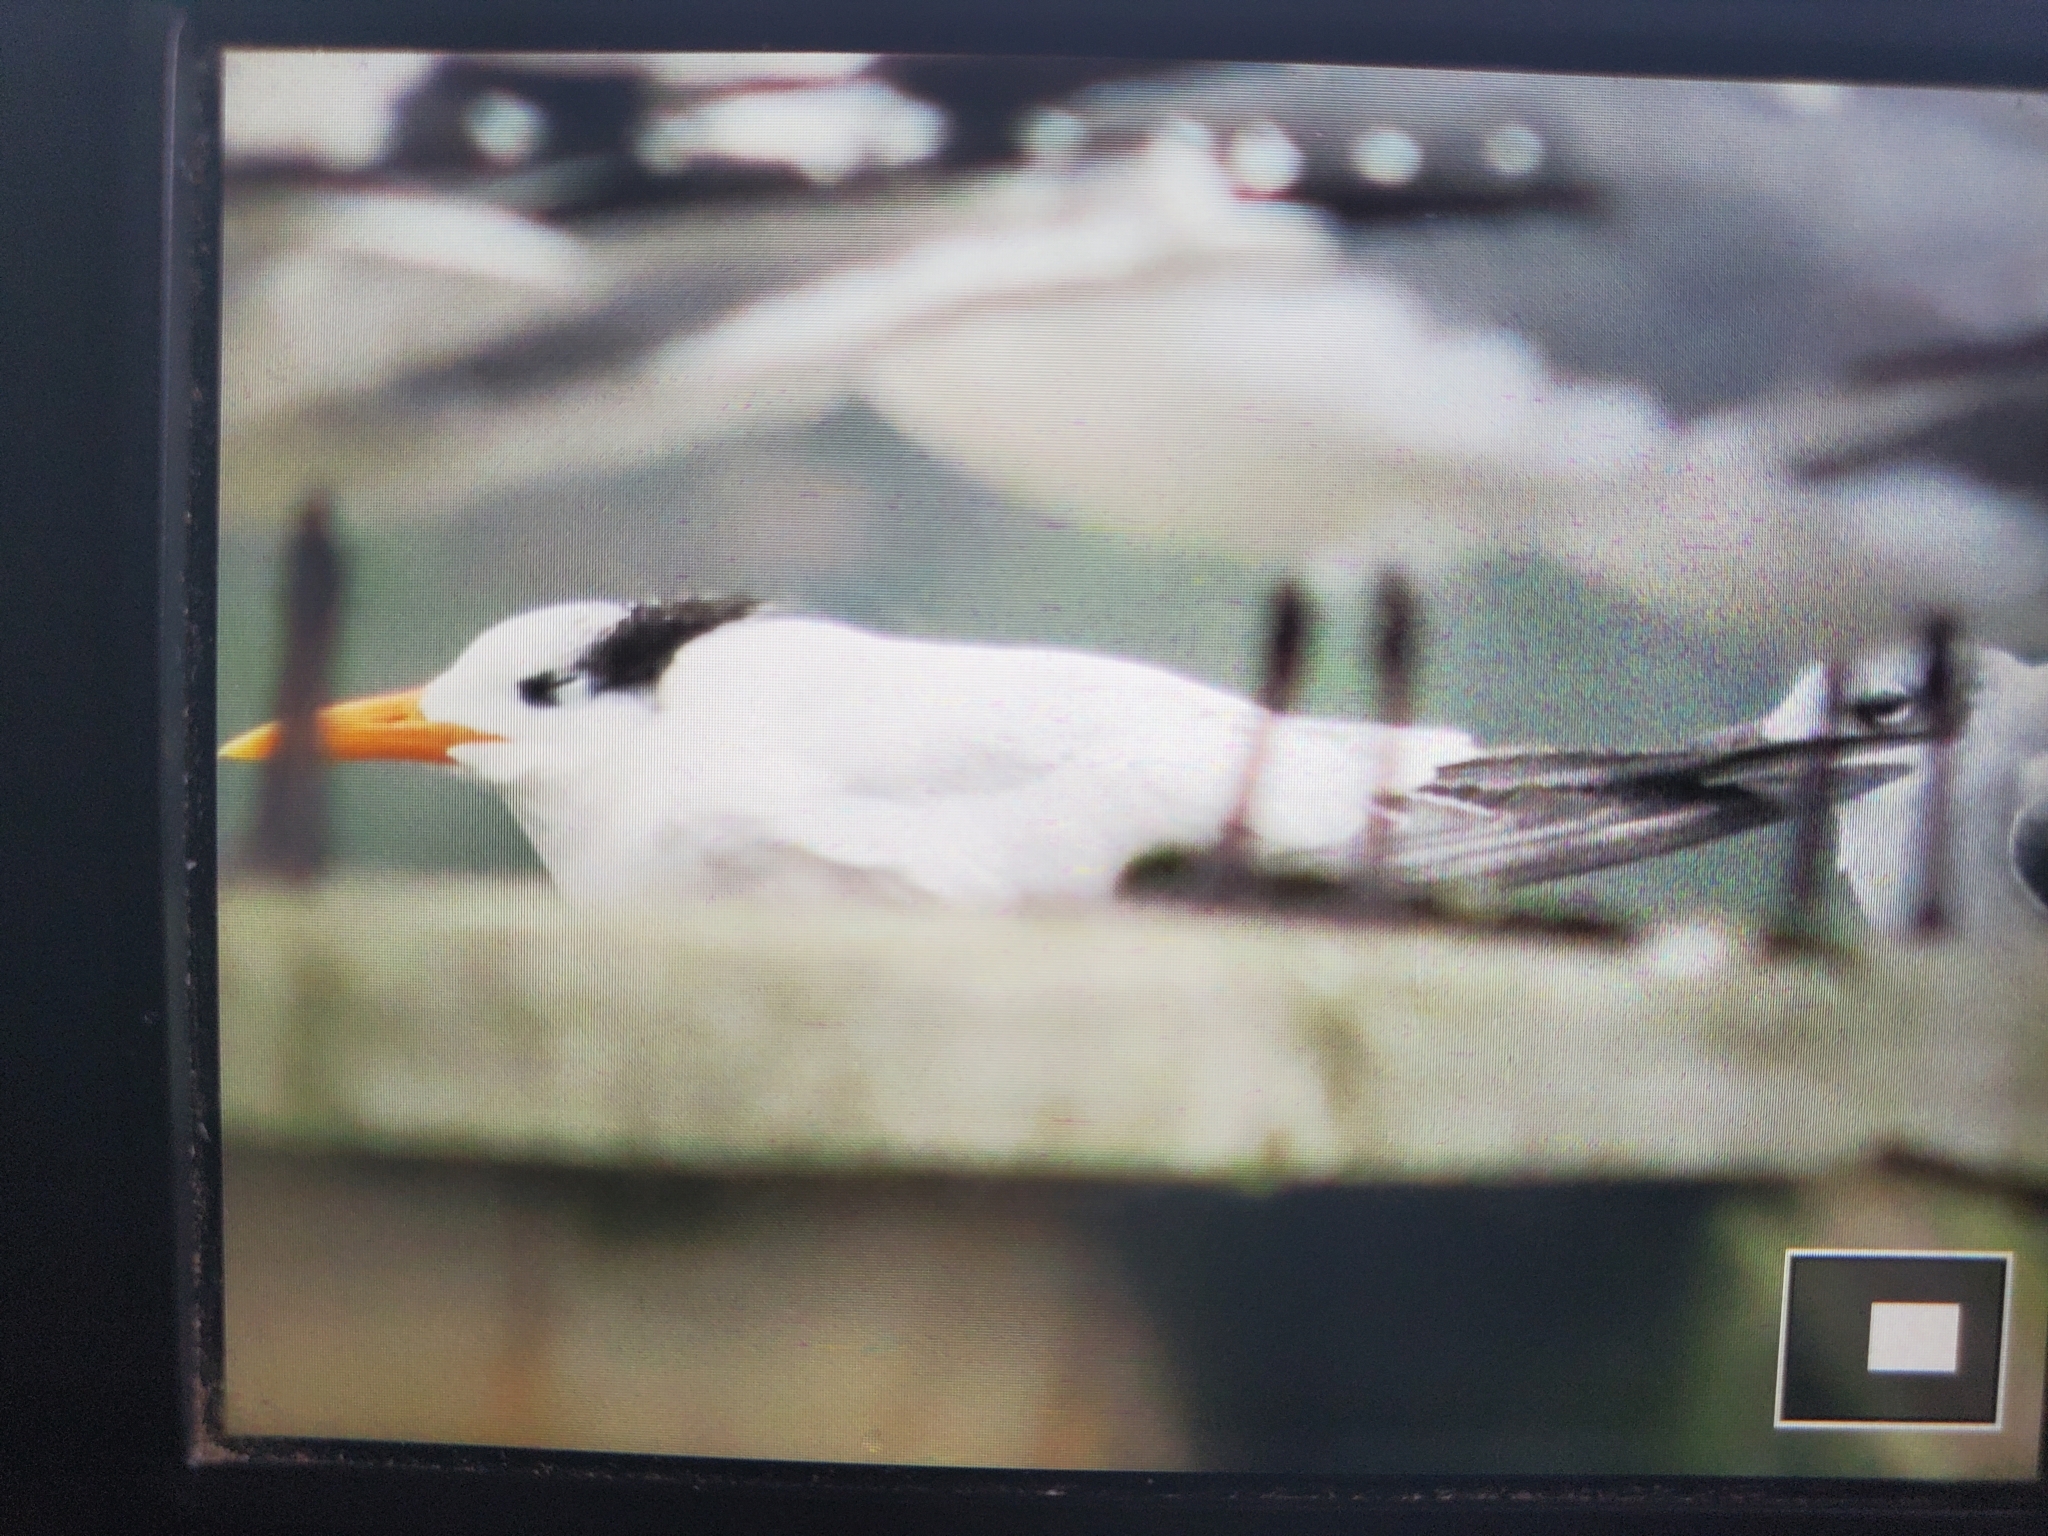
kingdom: Animalia
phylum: Chordata
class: Aves
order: Charadriiformes
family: Laridae
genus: Thalasseus
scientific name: Thalasseus maximus
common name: Royal tern
